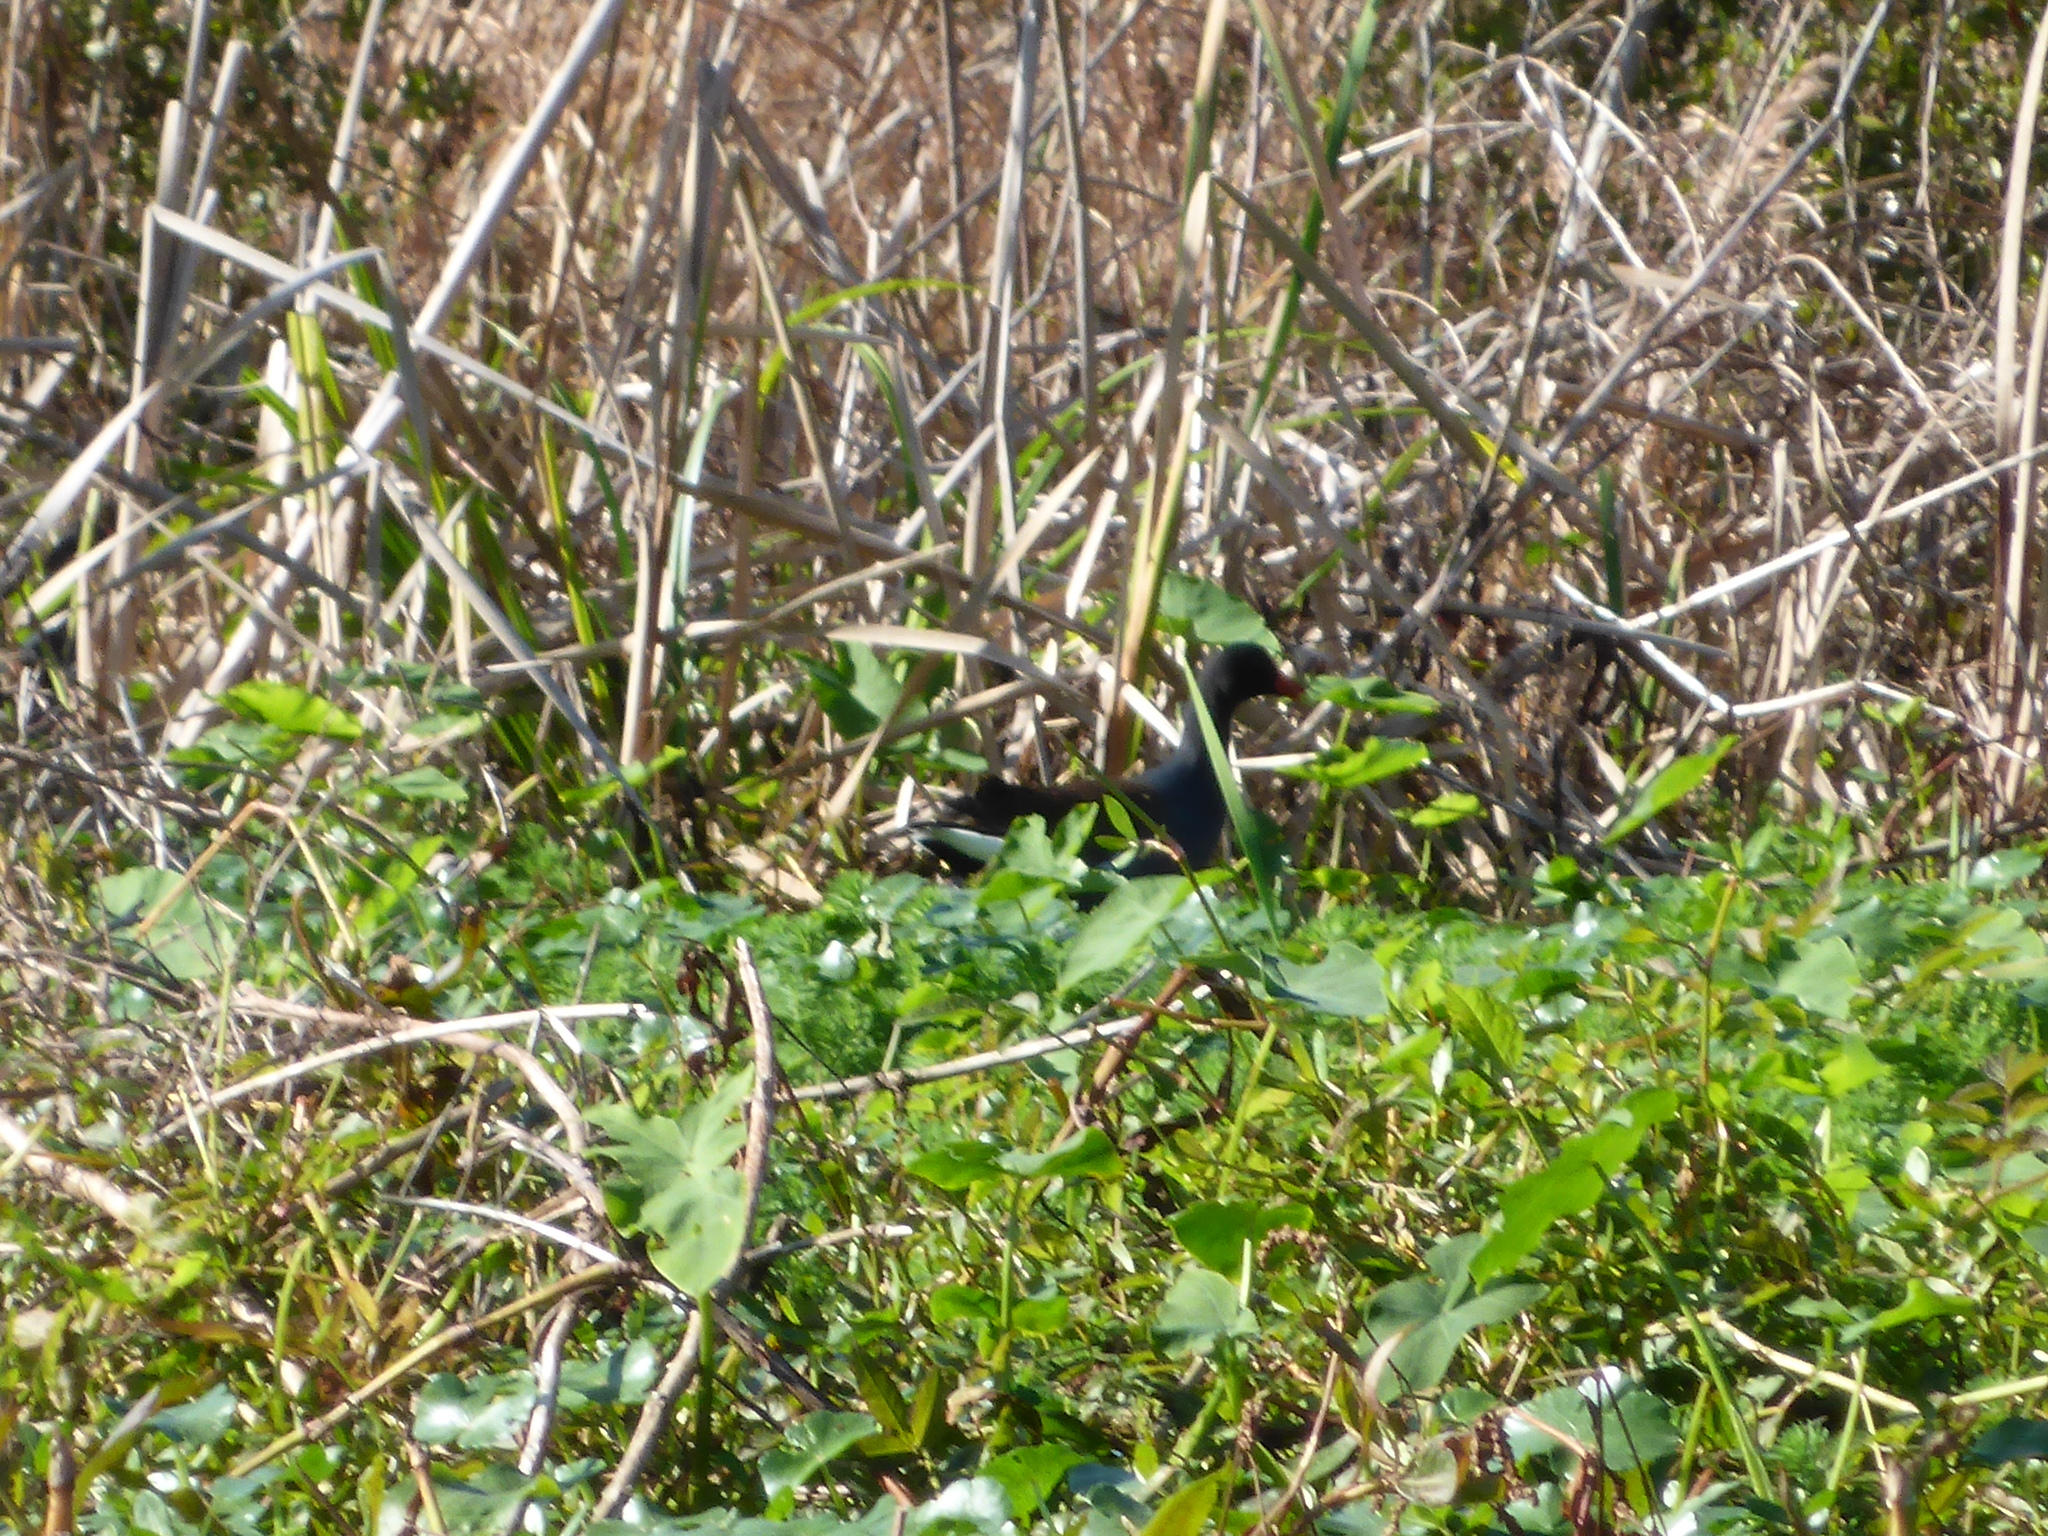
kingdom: Animalia
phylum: Chordata
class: Aves
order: Gruiformes
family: Rallidae
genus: Gallinula
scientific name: Gallinula chloropus
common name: Common moorhen
